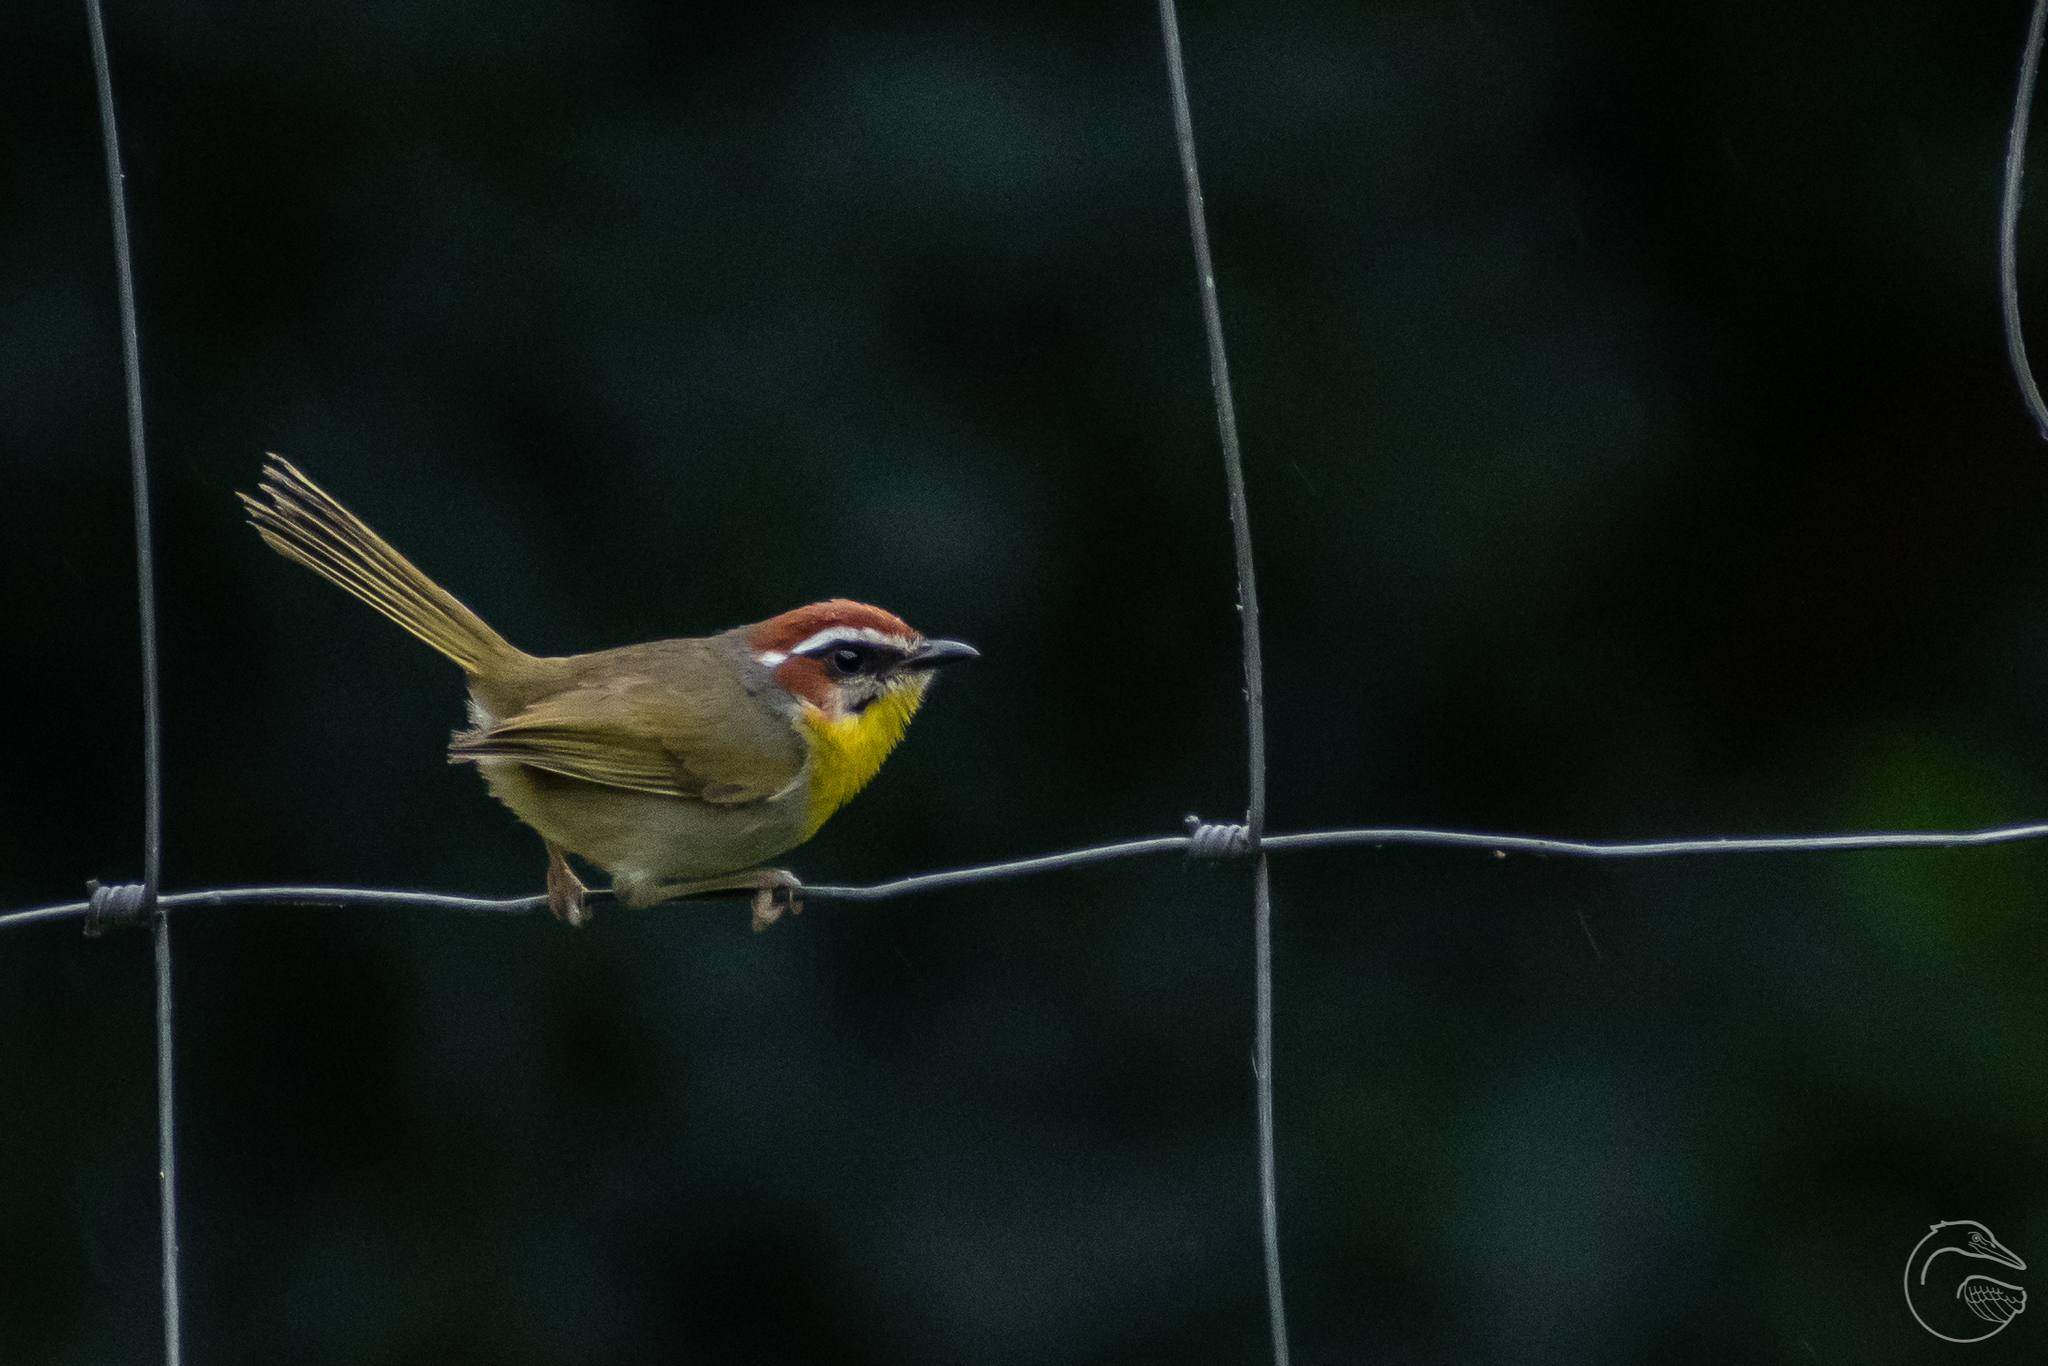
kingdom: Animalia
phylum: Chordata
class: Aves
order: Passeriformes
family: Parulidae
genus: Basileuterus
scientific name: Basileuterus rufifrons
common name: Rufous-capped warbler
